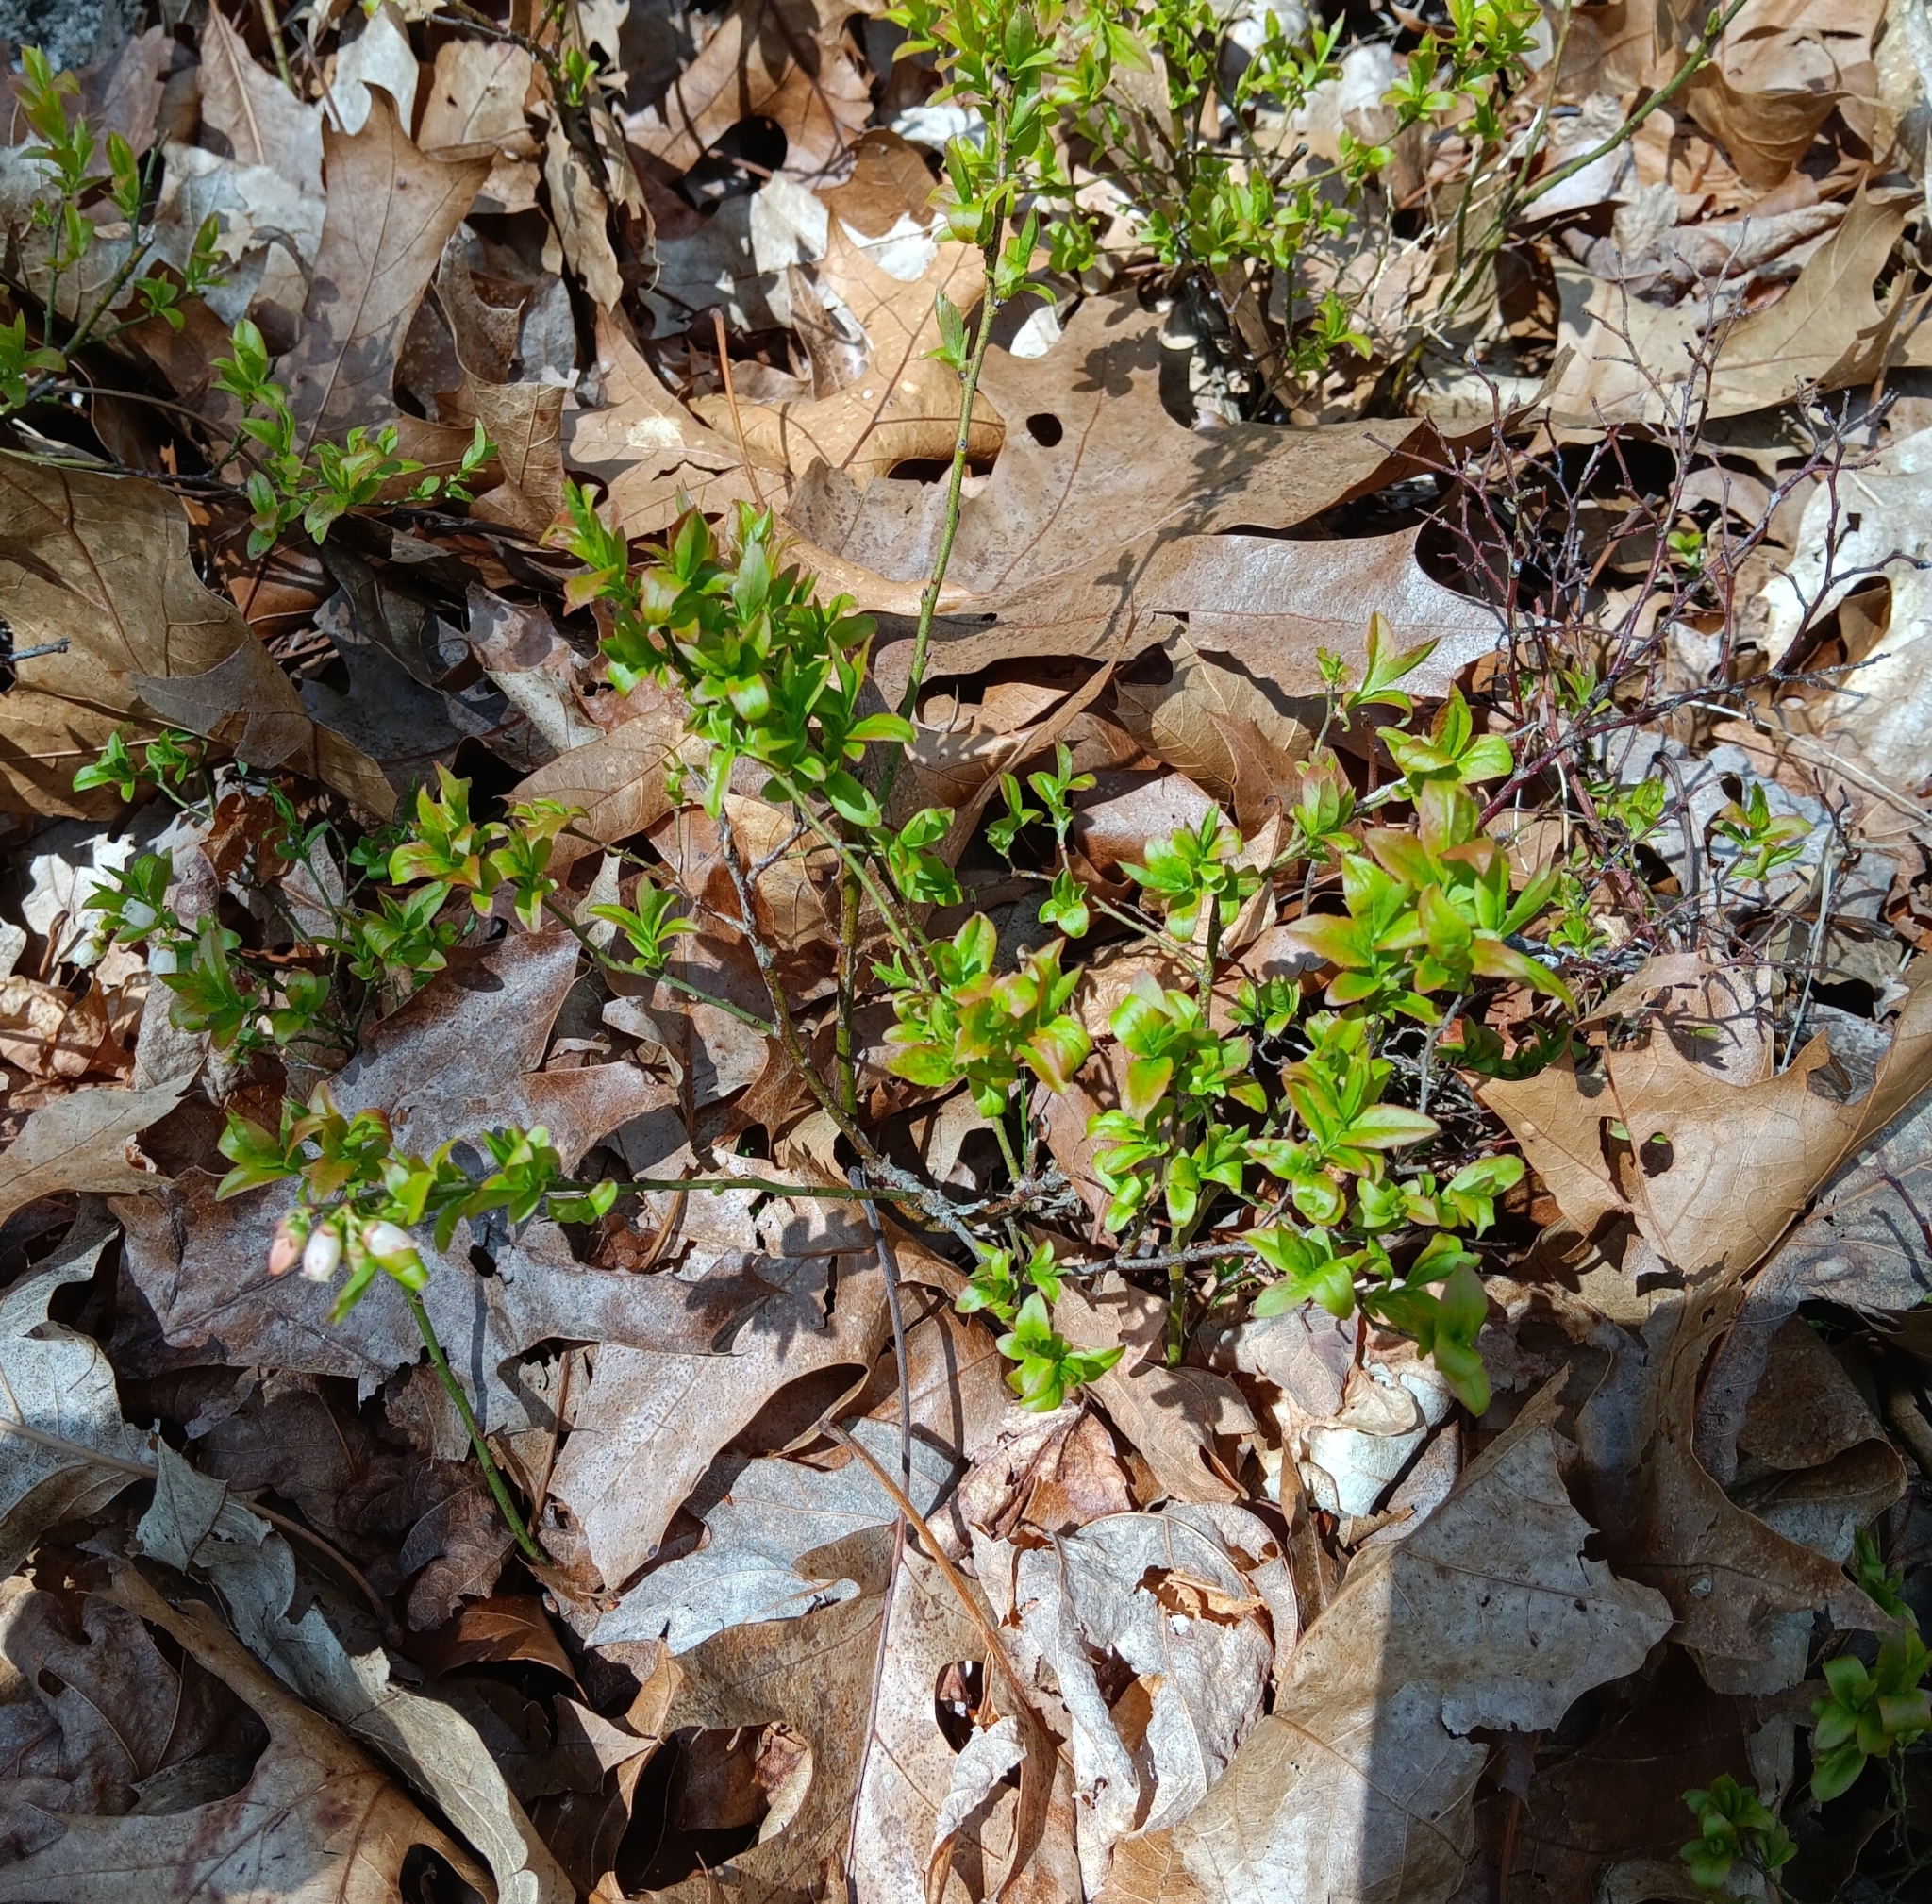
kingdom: Plantae
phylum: Tracheophyta
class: Magnoliopsida
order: Ericales
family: Ericaceae
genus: Vaccinium
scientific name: Vaccinium angustifolium
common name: Early lowbush blueberry
